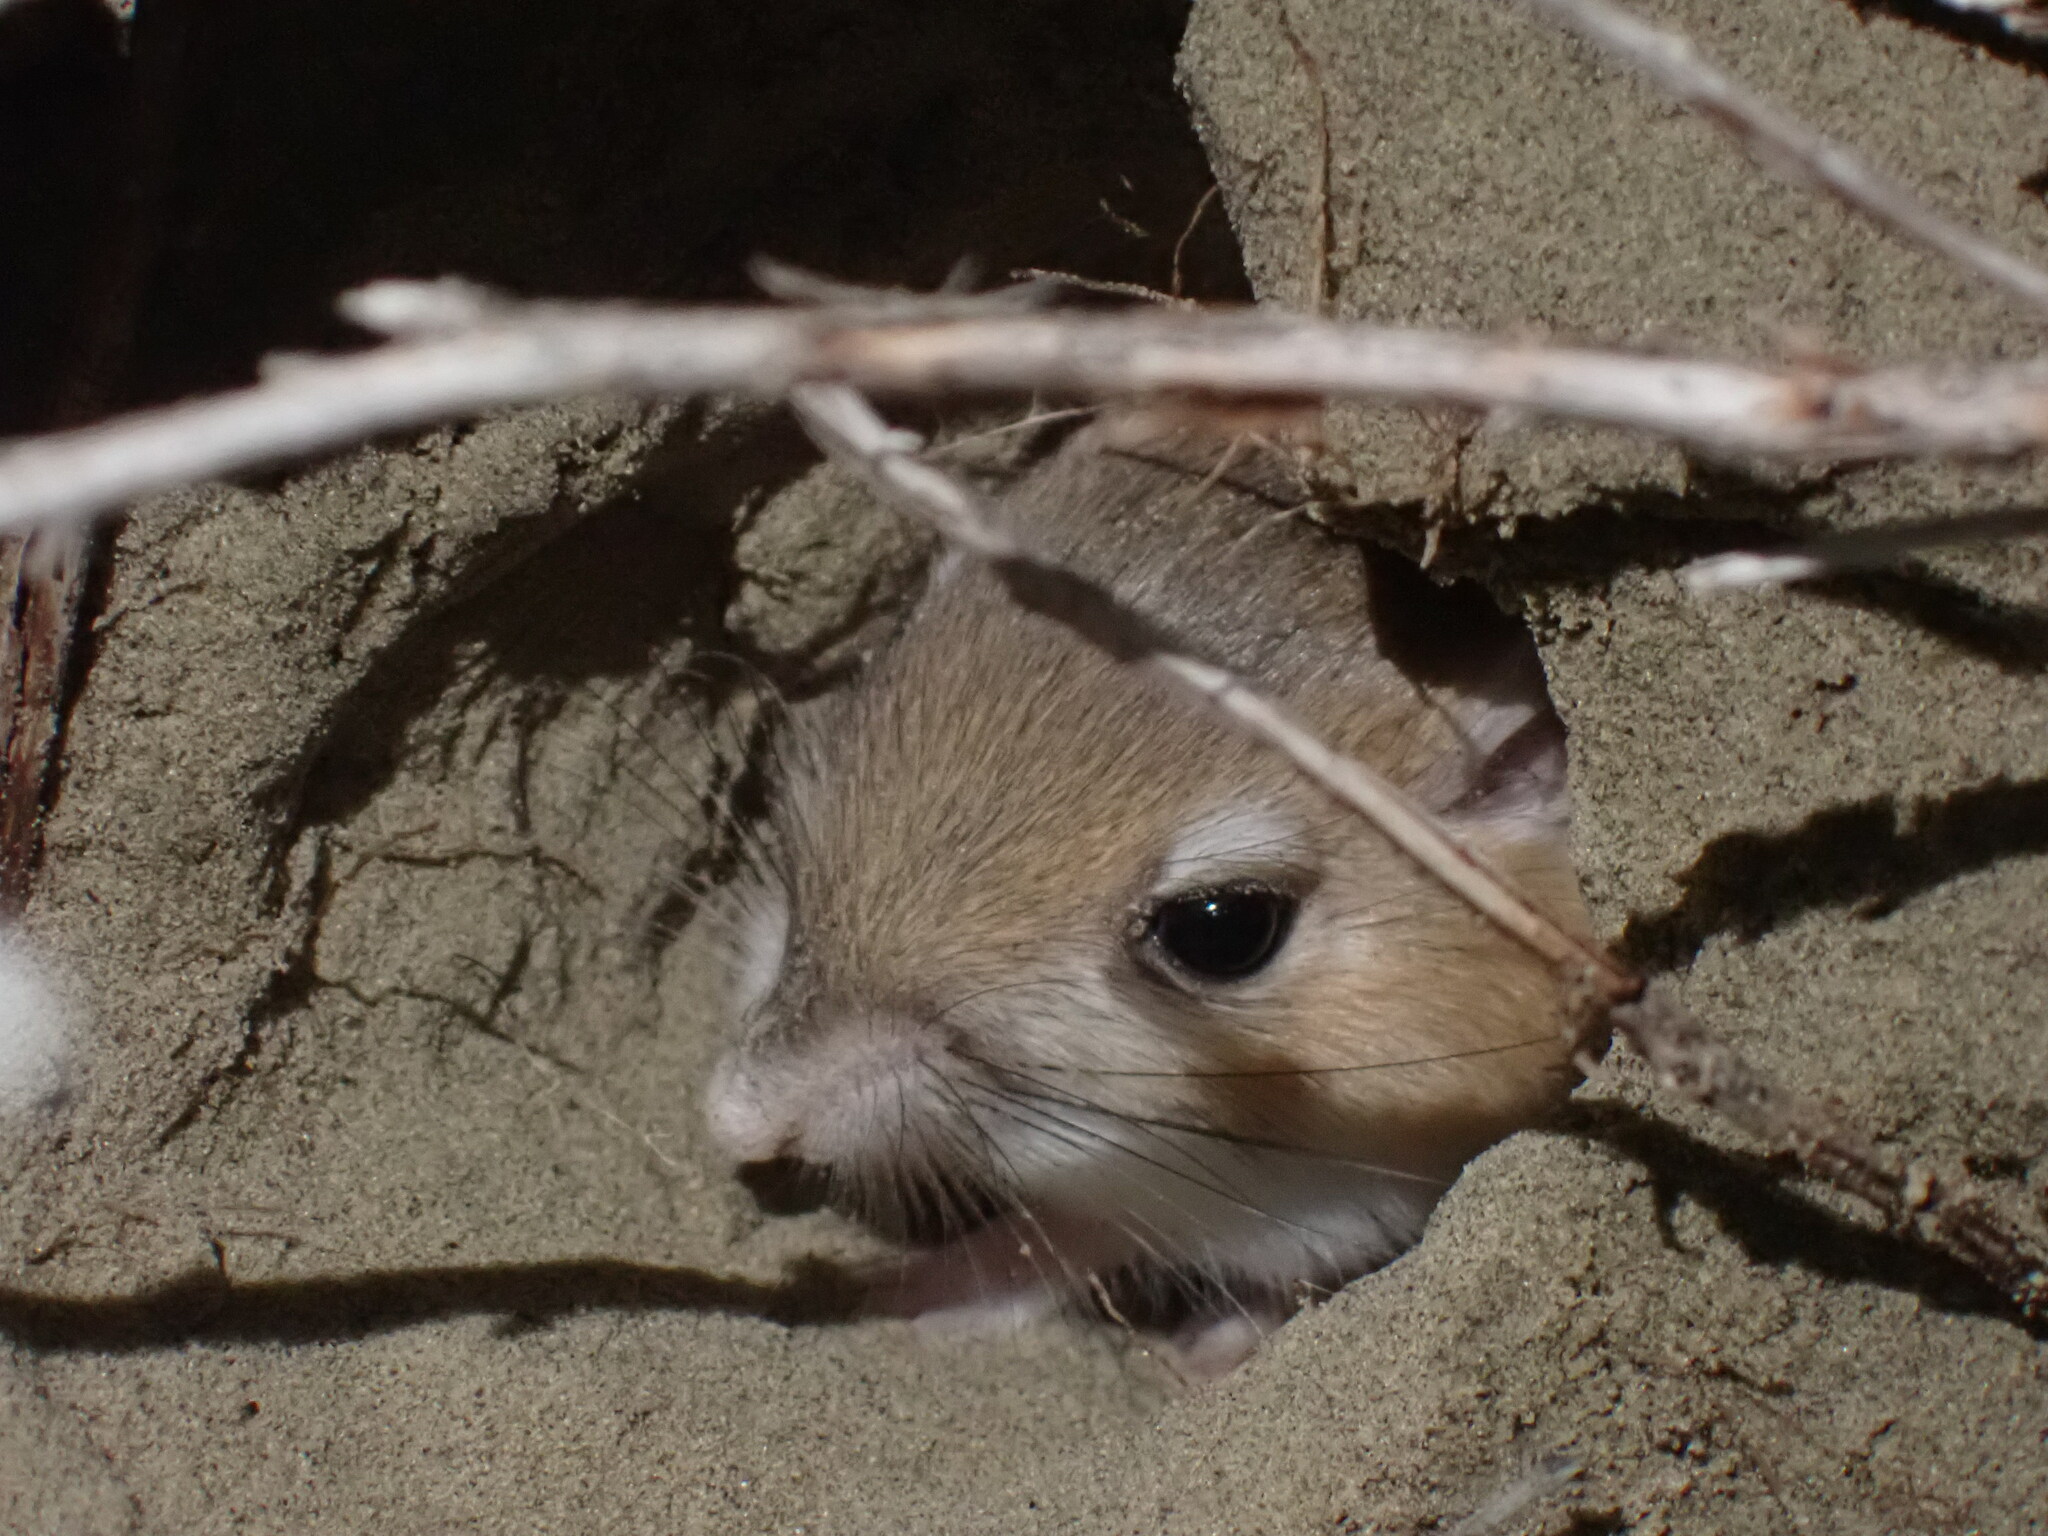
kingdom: Animalia
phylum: Chordata
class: Mammalia
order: Rodentia
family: Heteromyidae
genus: Dipodomys
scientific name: Dipodomys ordii
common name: Ord's kangaroo rat
